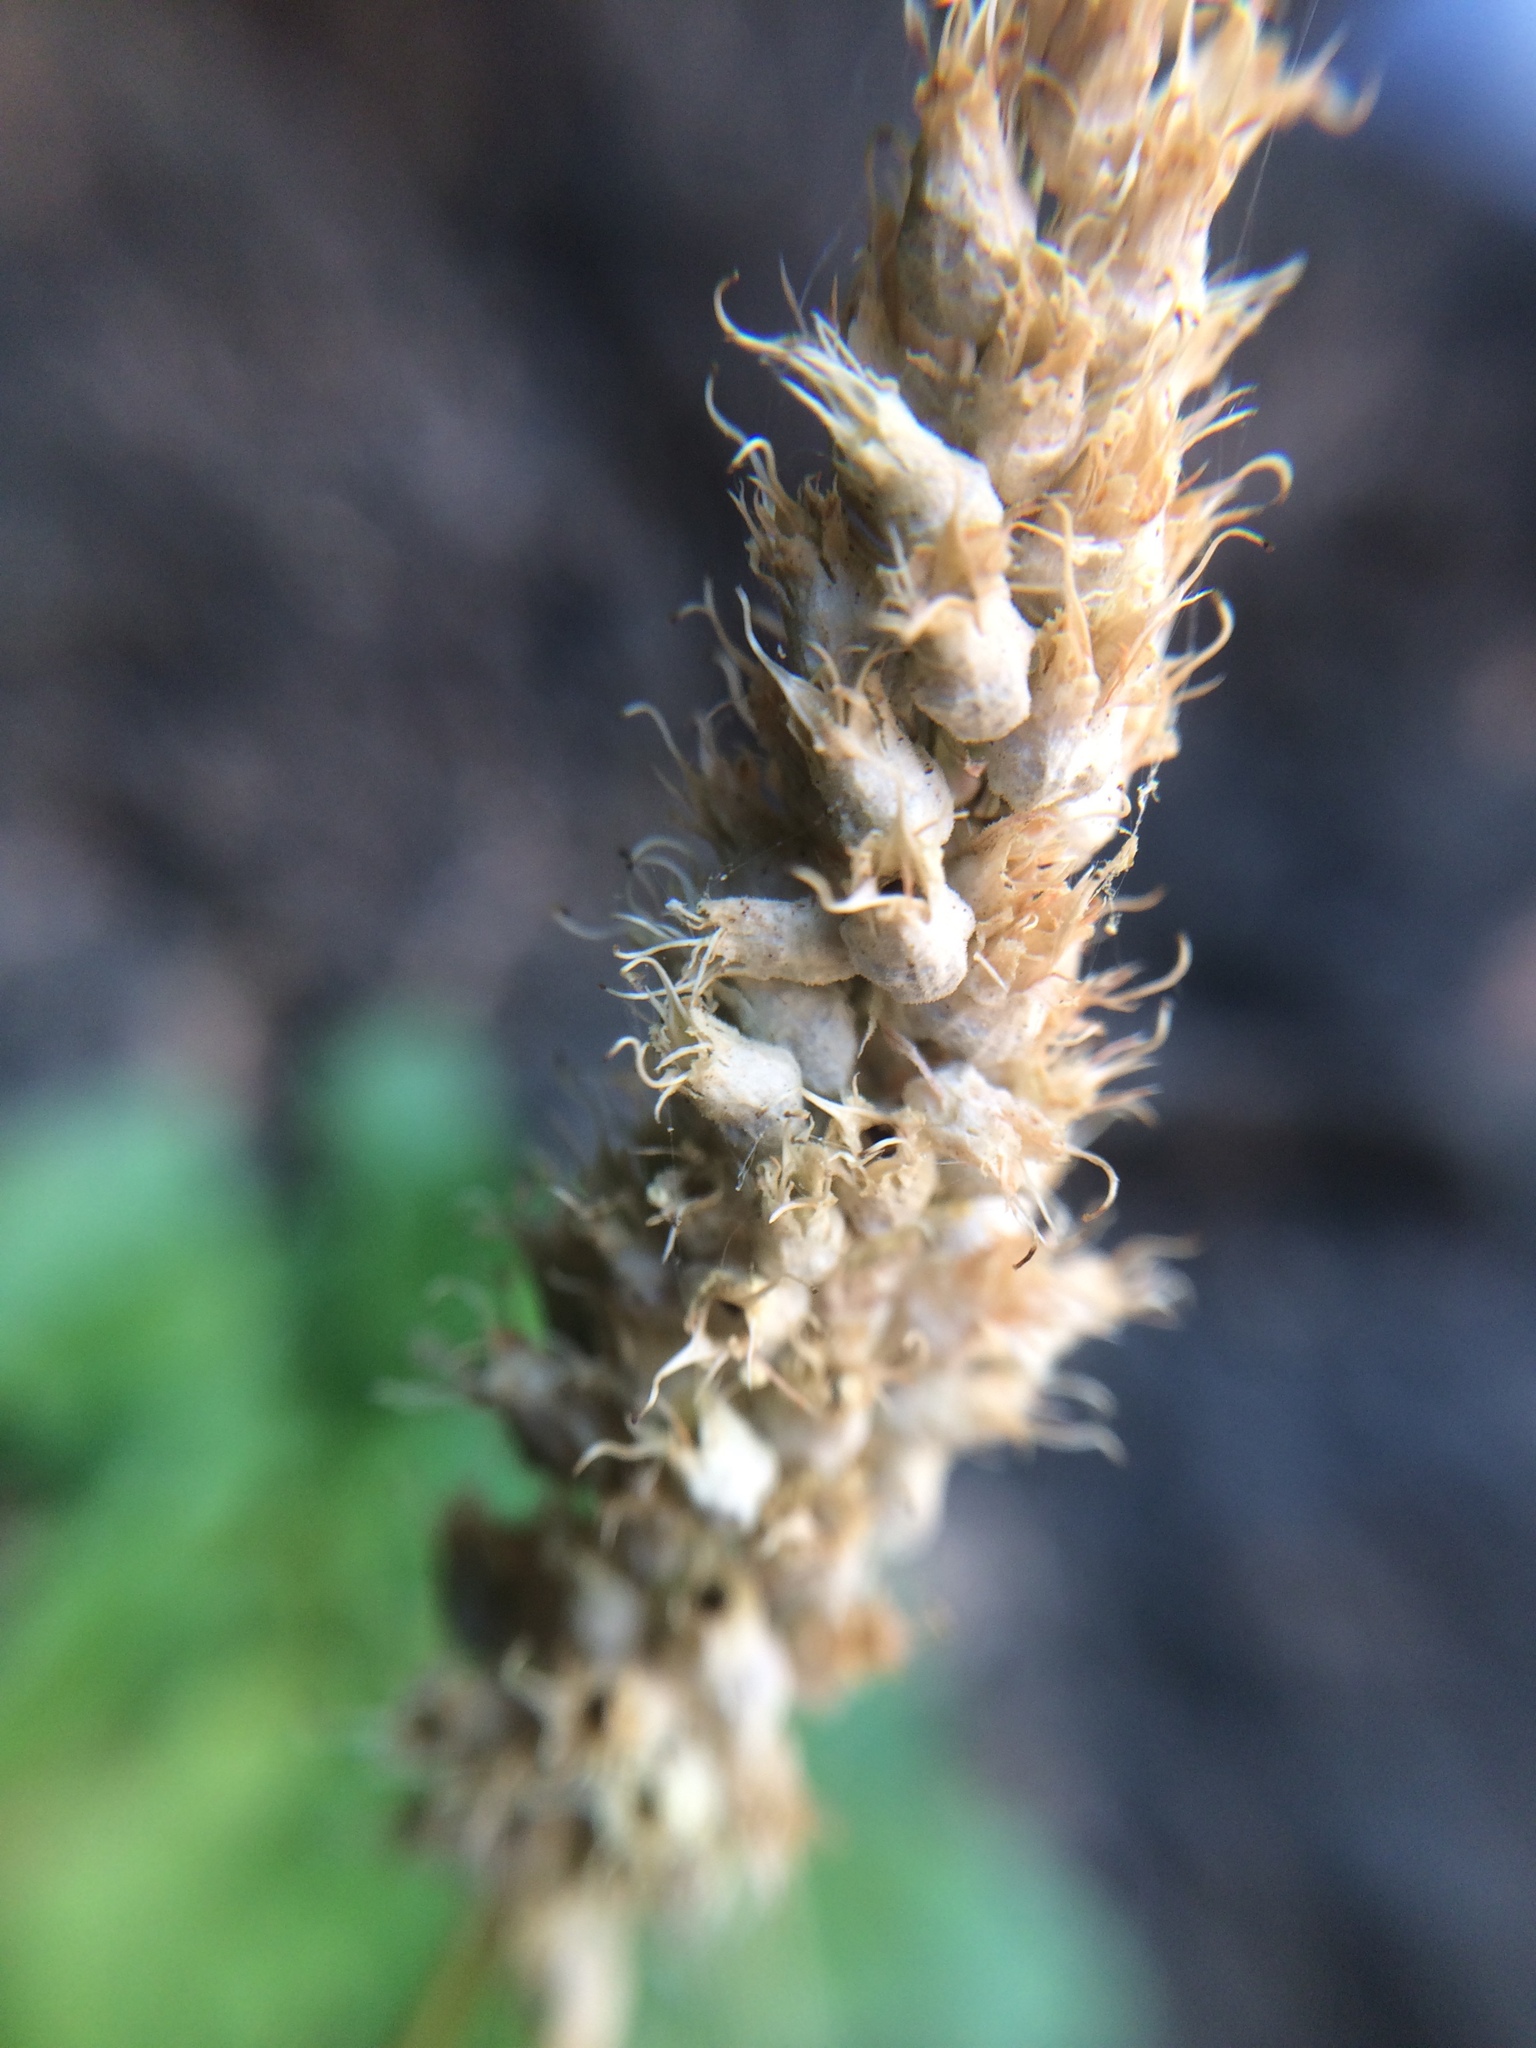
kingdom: Plantae
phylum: Tracheophyta
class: Magnoliopsida
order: Saxifragales
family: Saxifragaceae
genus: Heuchera
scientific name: Heuchera bracteata
